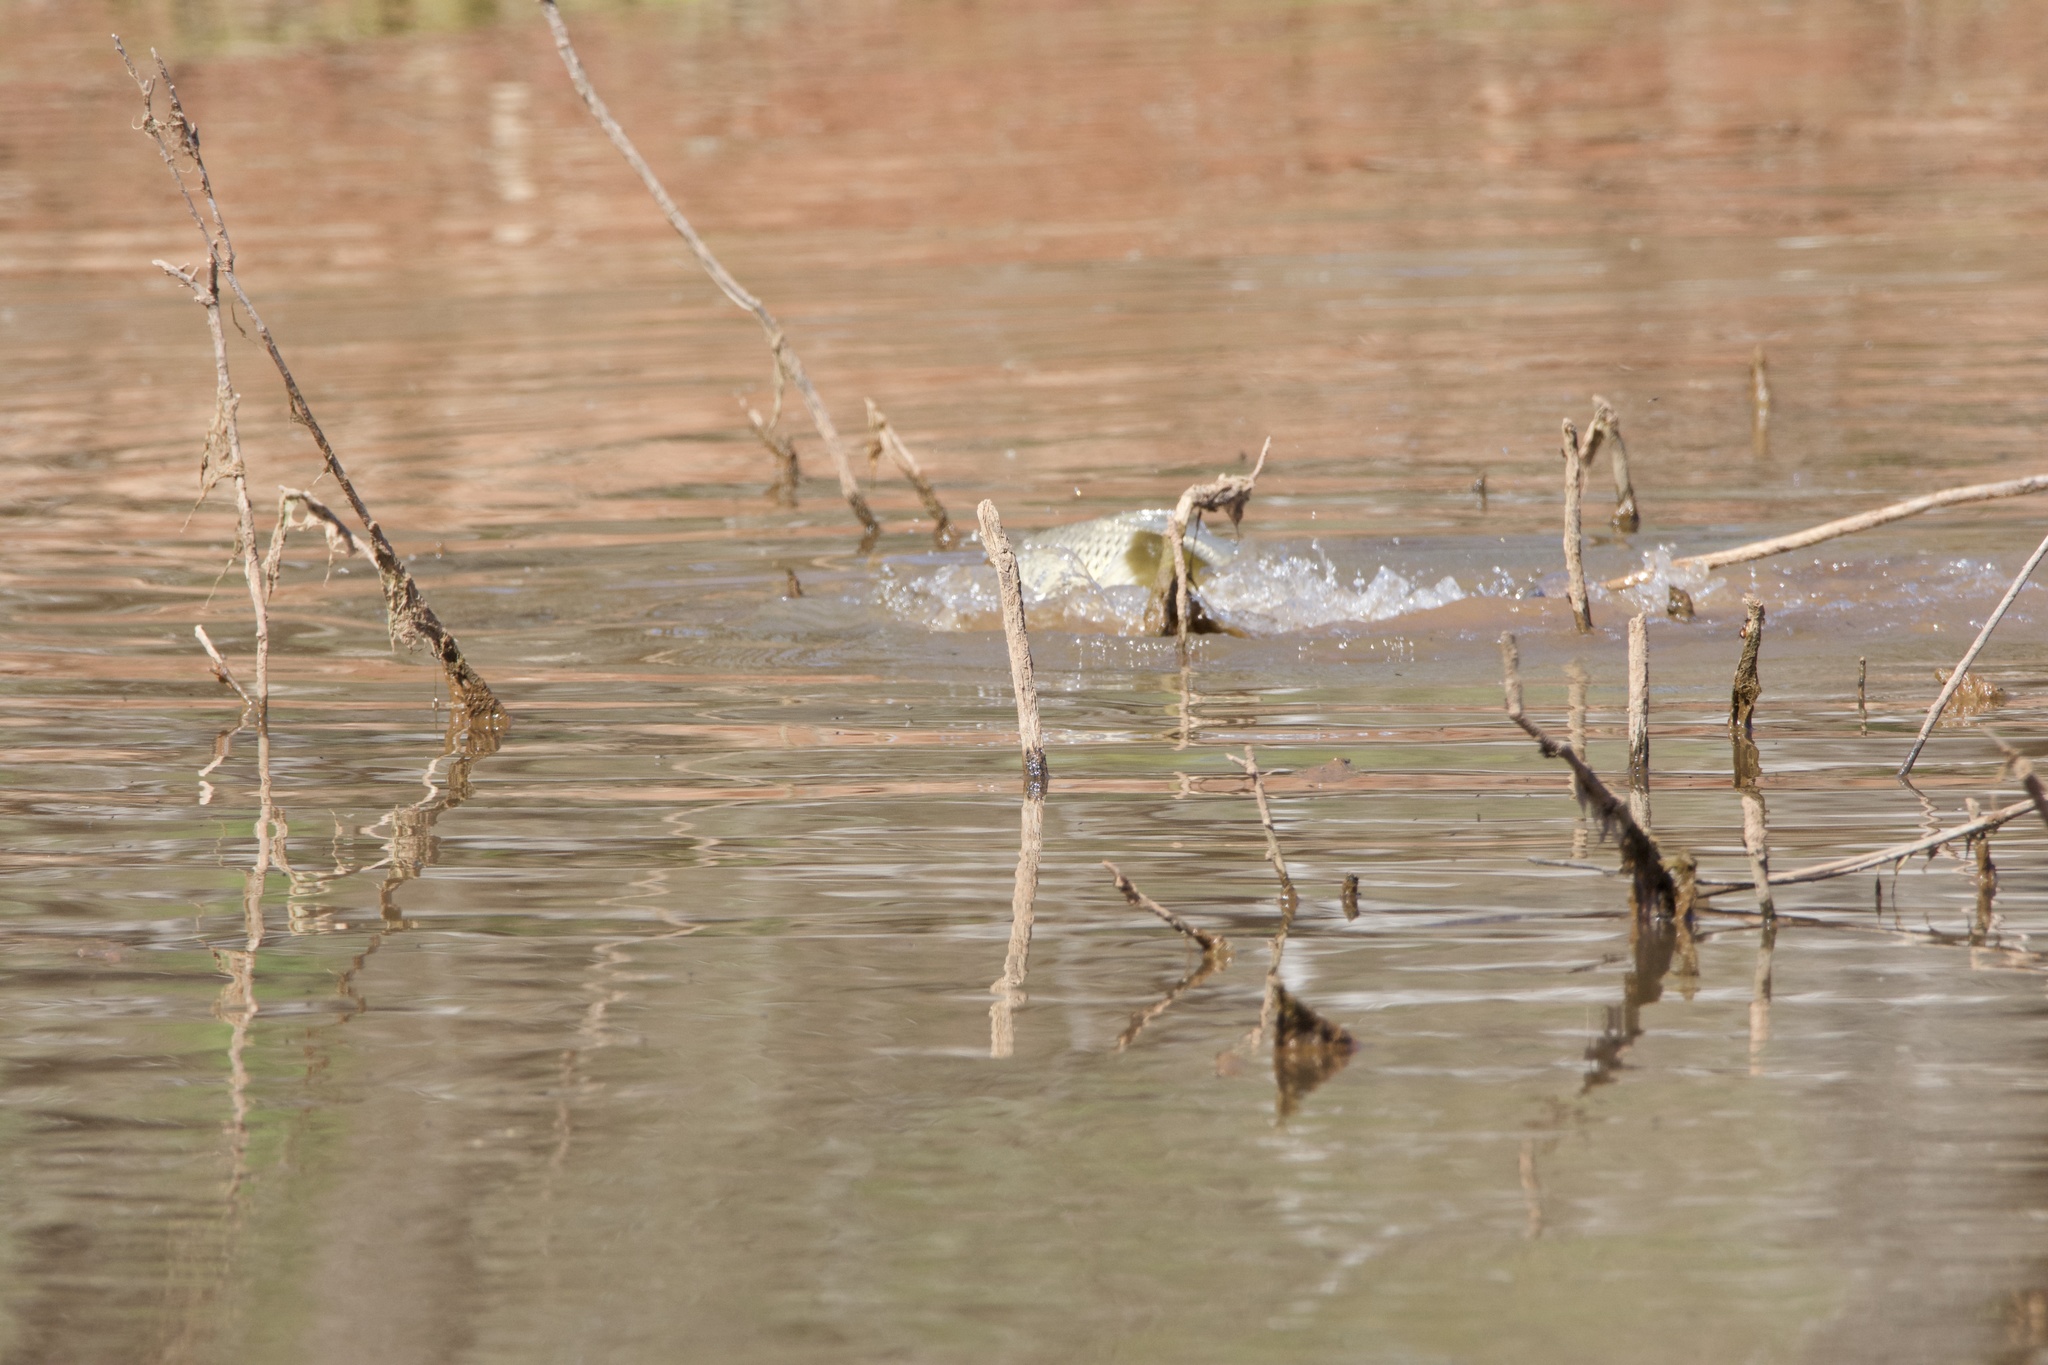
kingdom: Animalia
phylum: Chordata
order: Cypriniformes
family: Cyprinidae
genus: Cyprinus
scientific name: Cyprinus carpio
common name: Common carp
